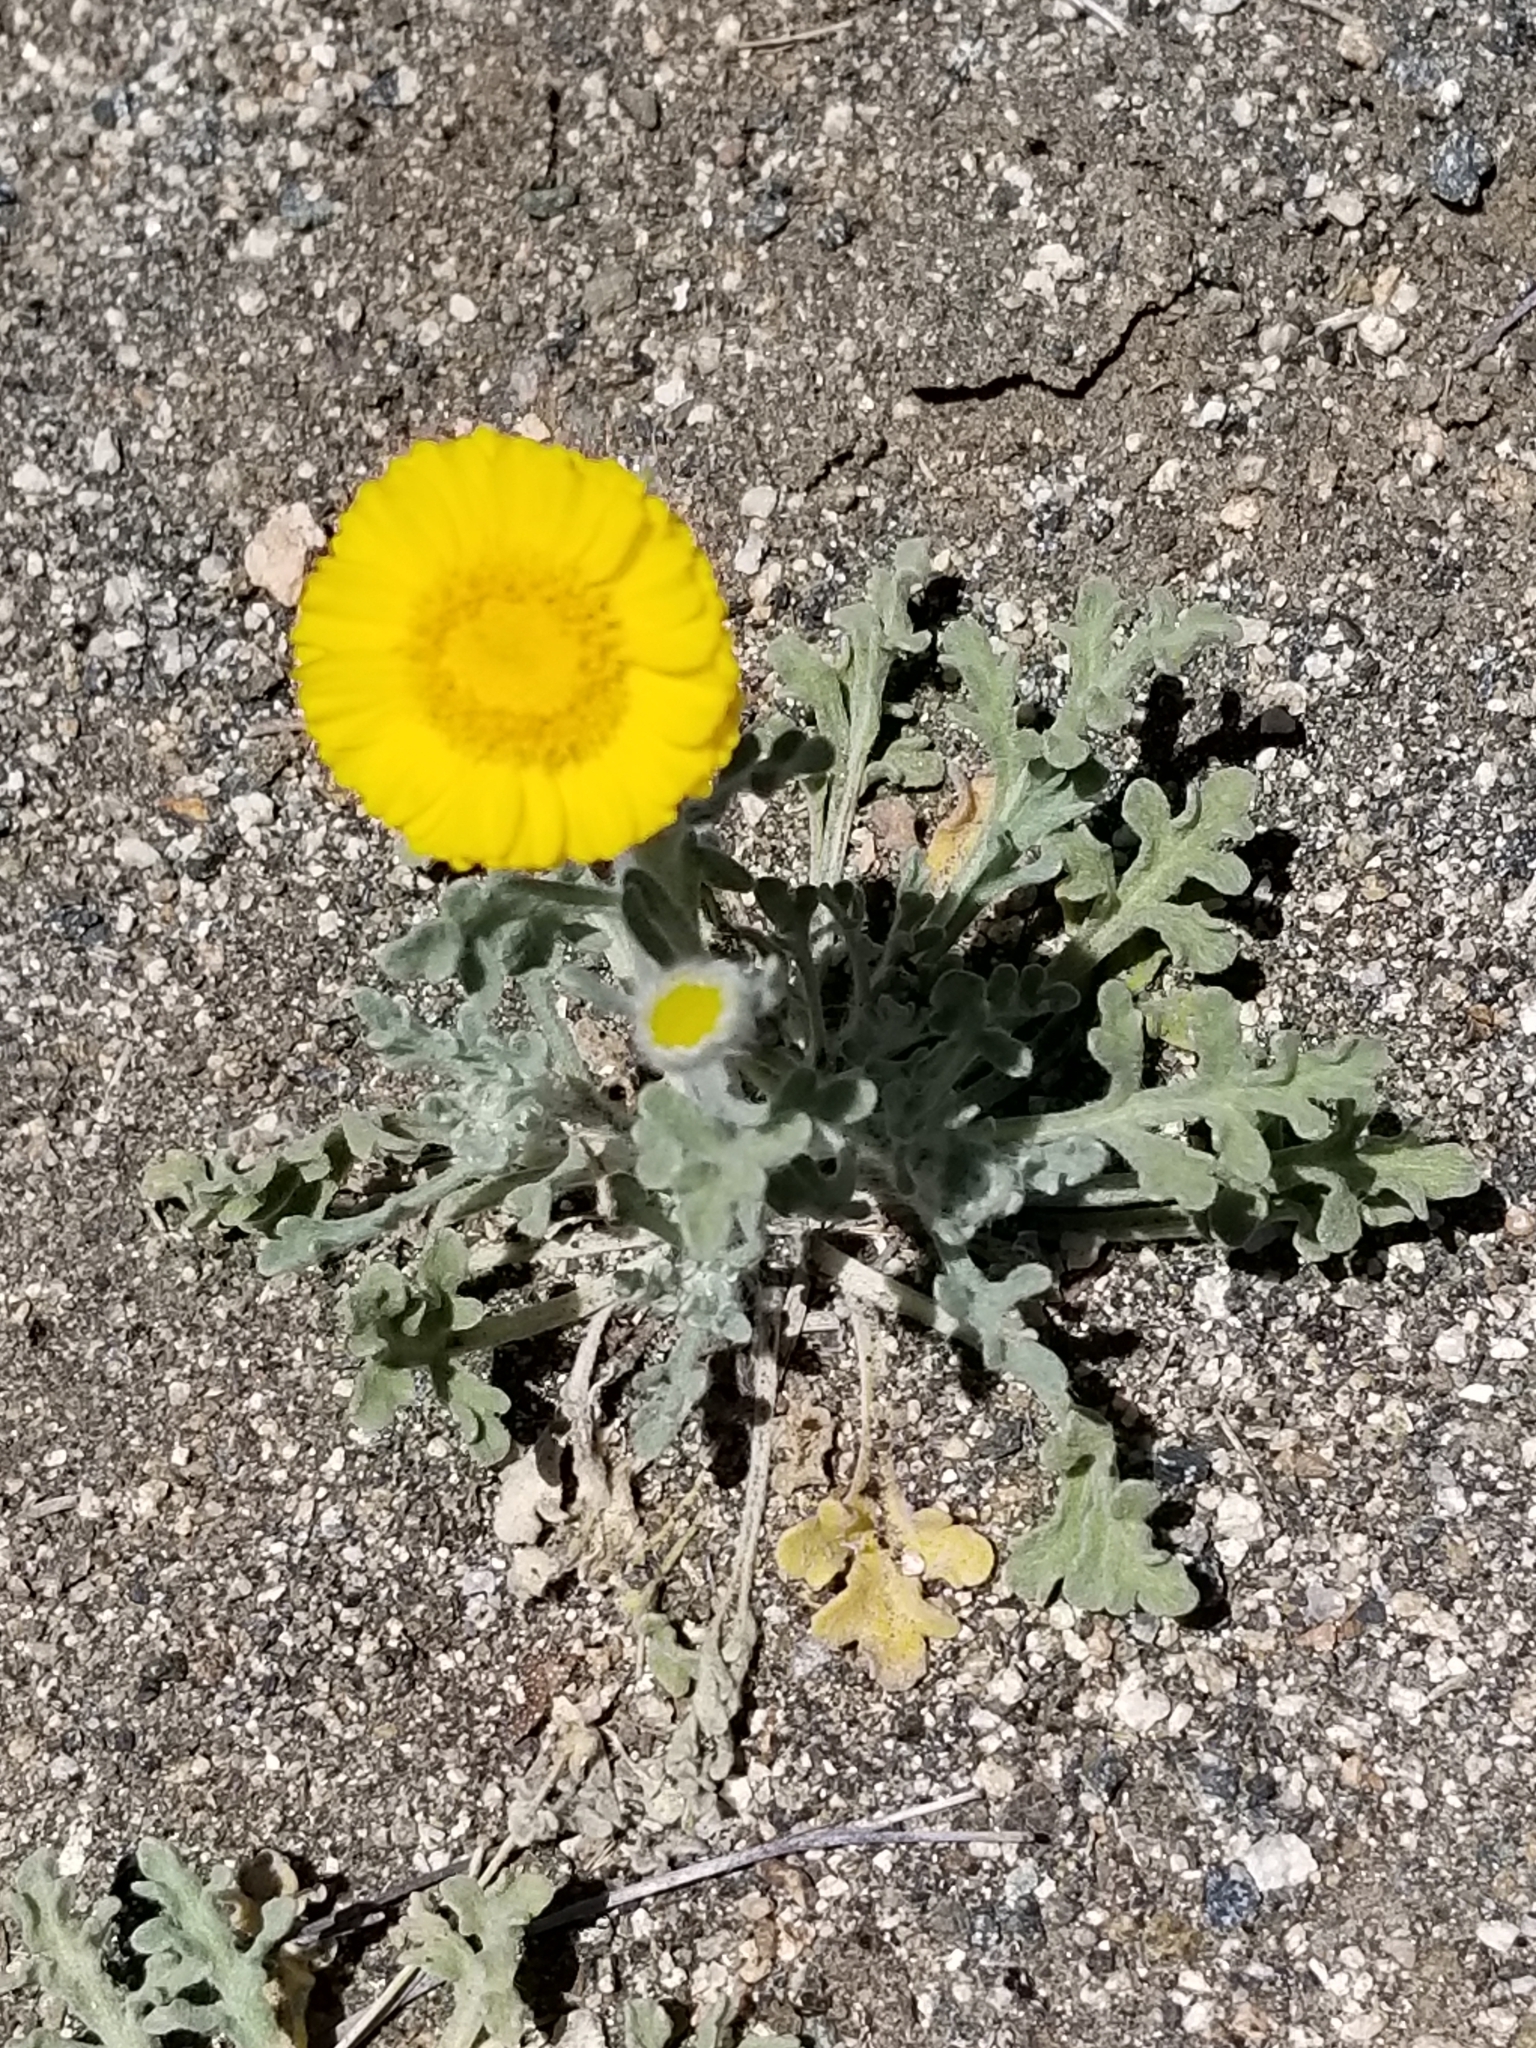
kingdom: Plantae
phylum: Tracheophyta
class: Magnoliopsida
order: Asterales
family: Asteraceae
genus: Baileya
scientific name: Baileya multiradiata
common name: Desert-marigold
